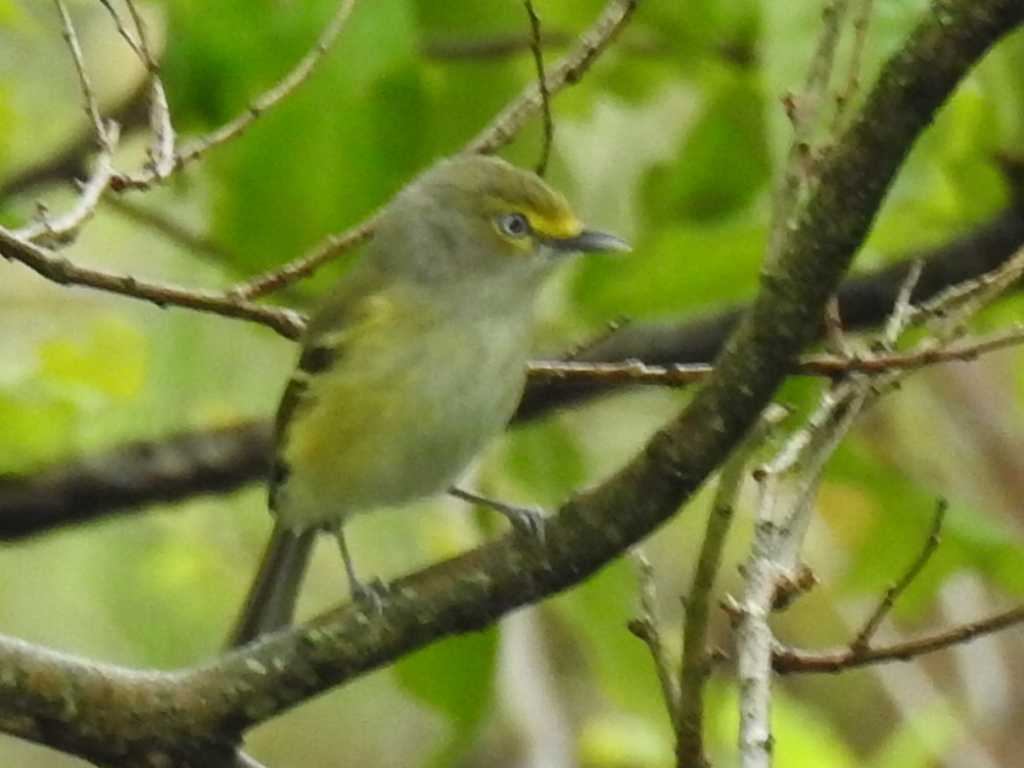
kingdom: Animalia
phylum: Chordata
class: Aves
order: Passeriformes
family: Vireonidae
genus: Vireo
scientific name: Vireo griseus
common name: White-eyed vireo
